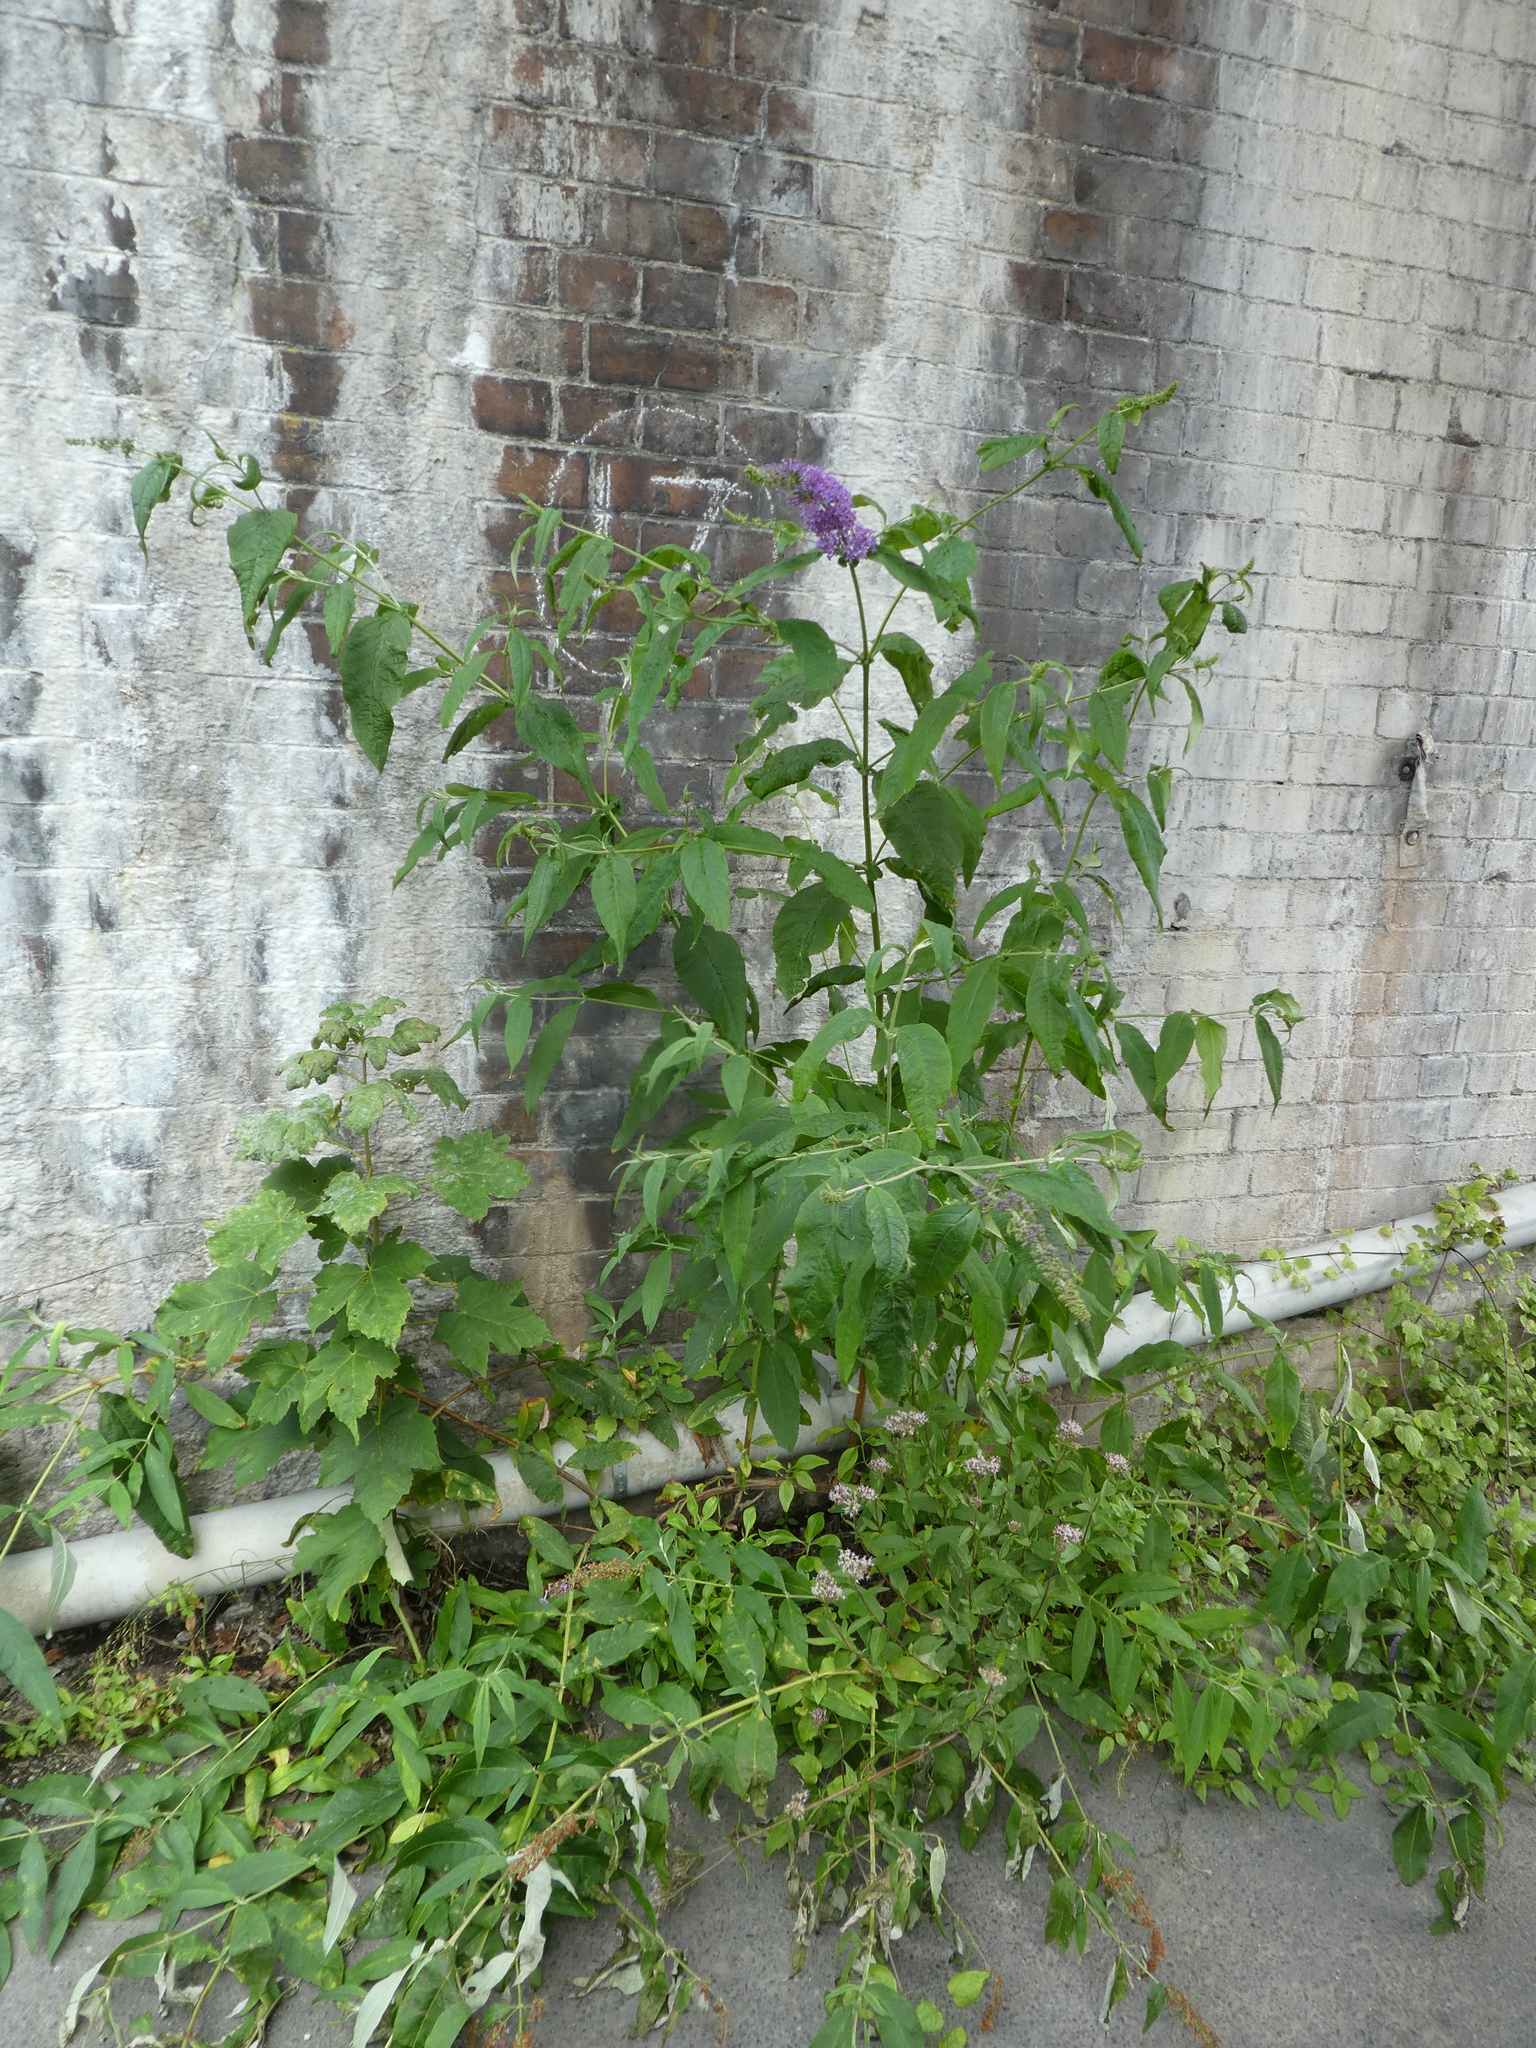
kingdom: Plantae
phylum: Tracheophyta
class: Magnoliopsida
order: Lamiales
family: Scrophulariaceae
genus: Buddleja
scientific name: Buddleja davidii
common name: Butterfly-bush
